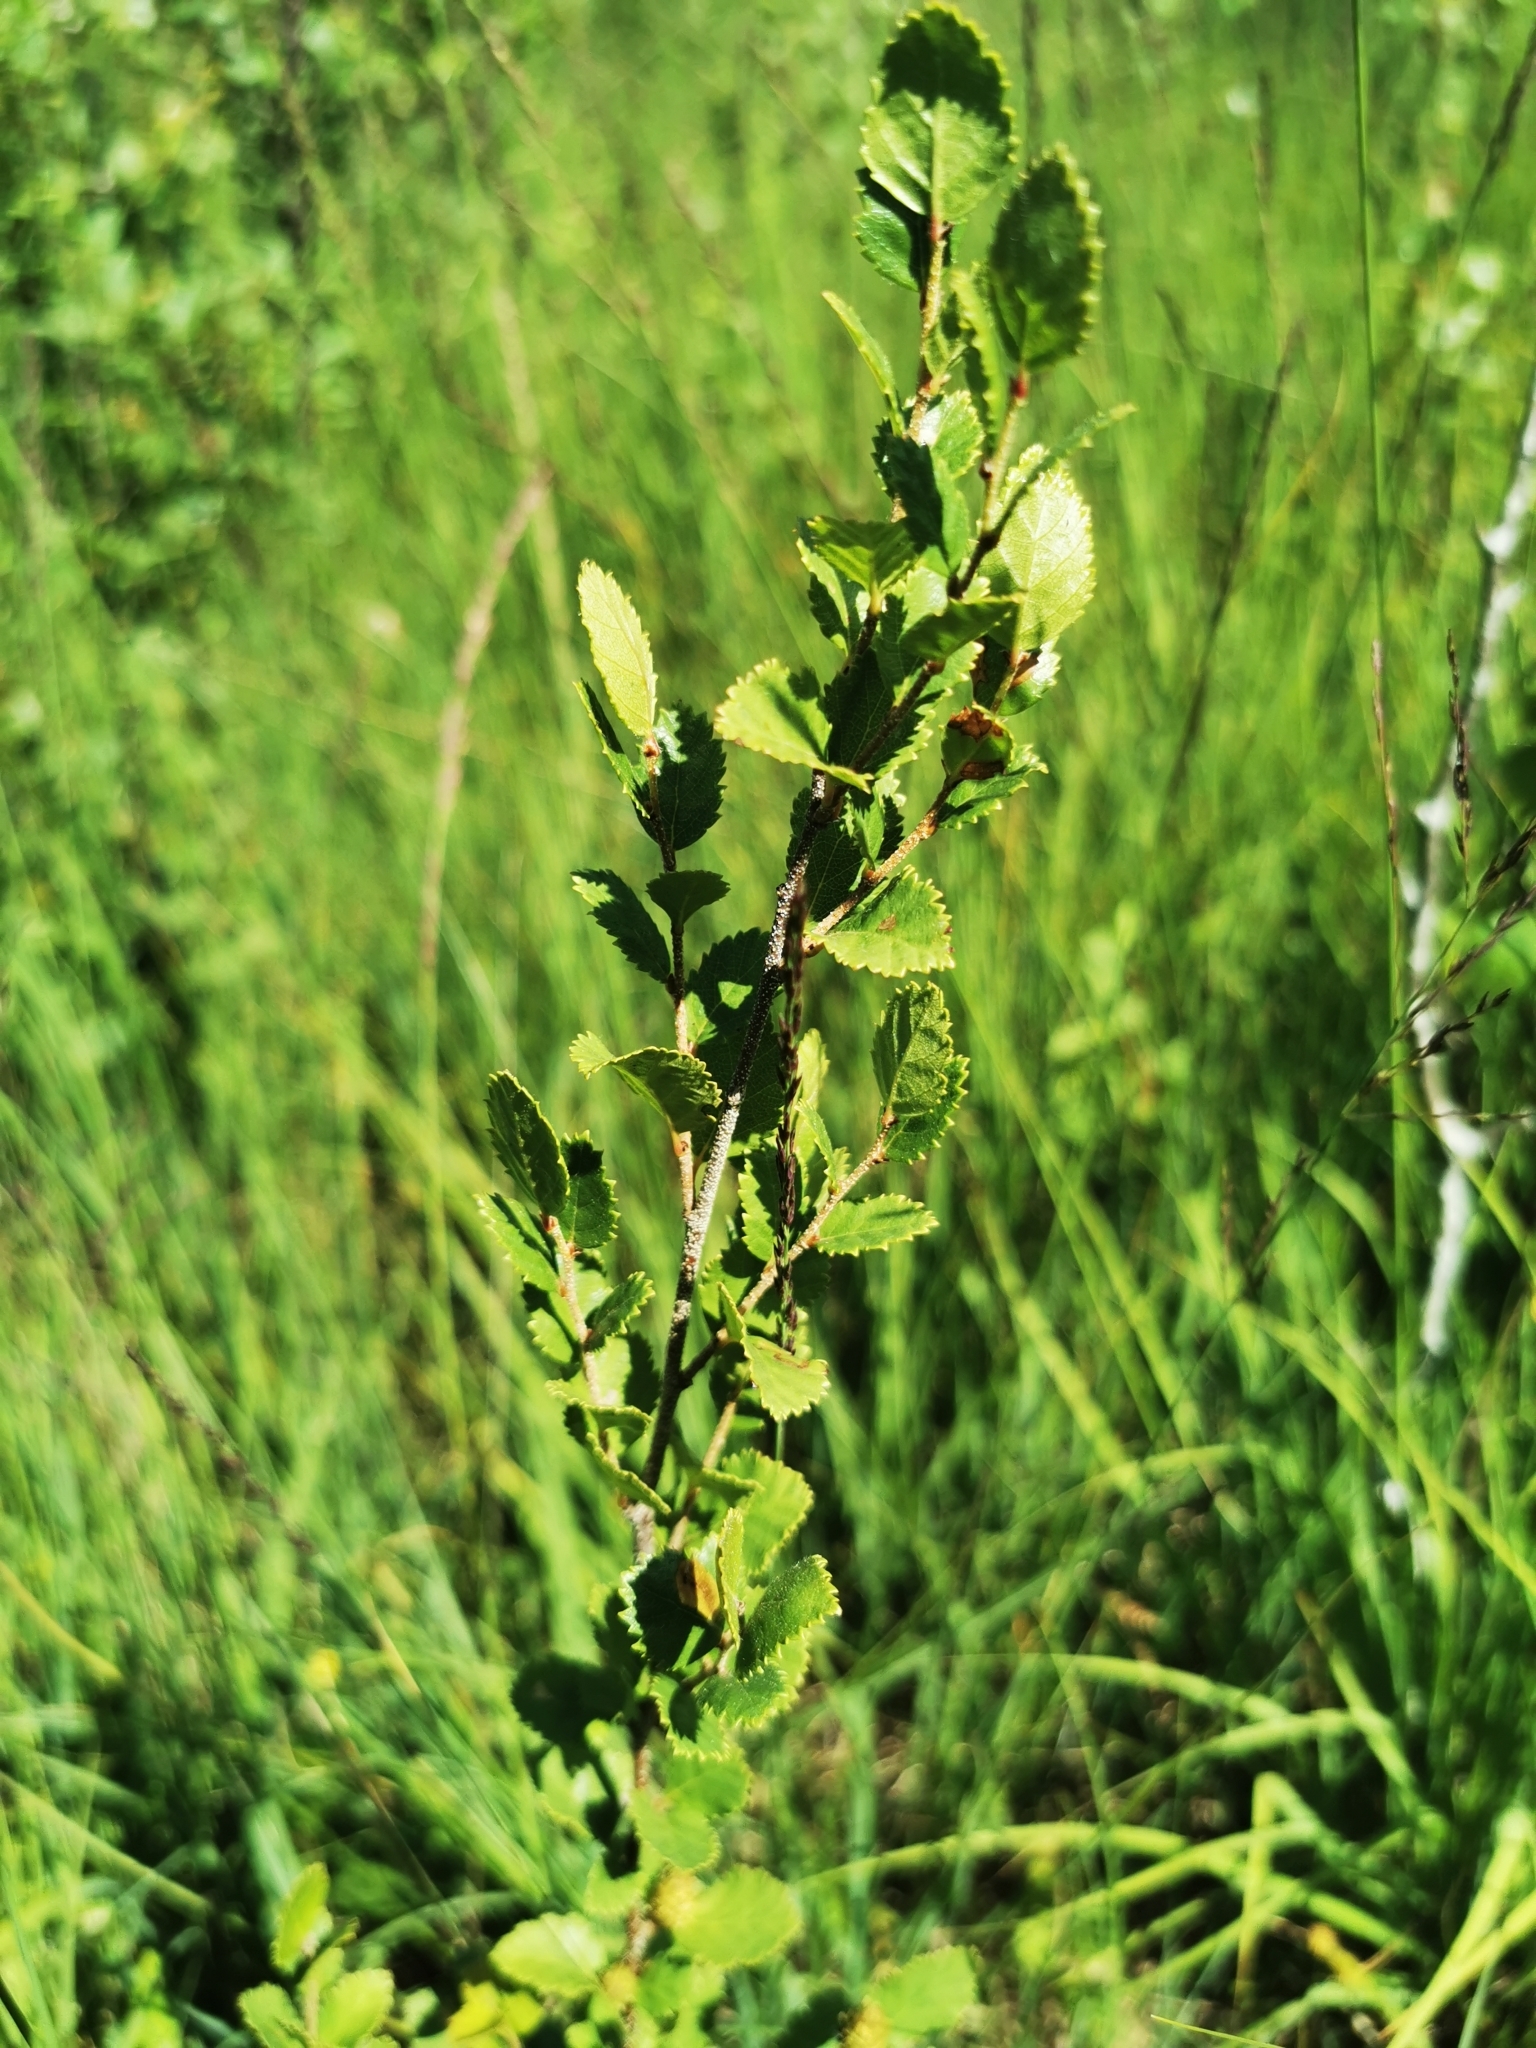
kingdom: Plantae
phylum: Tracheophyta
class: Magnoliopsida
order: Fagales
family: Betulaceae
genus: Betula
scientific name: Betula humilis
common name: Shrubby birch
